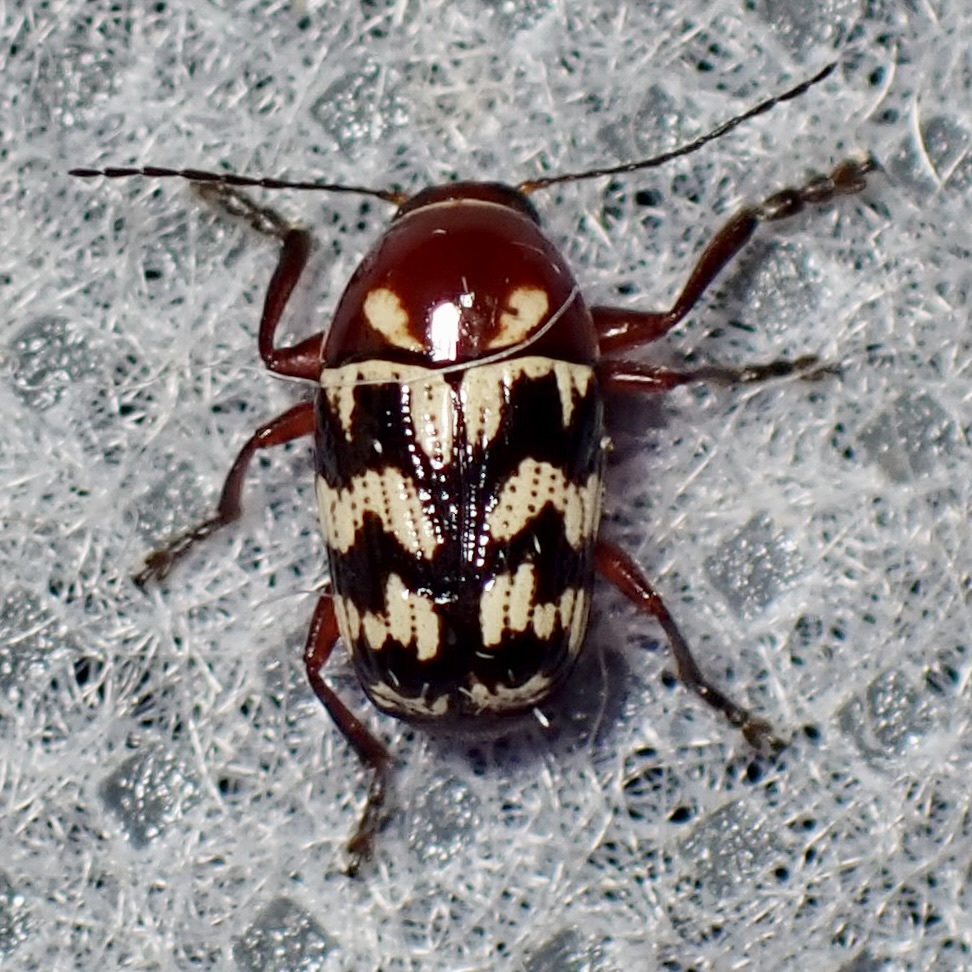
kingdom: Animalia
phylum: Arthropoda
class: Insecta
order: Coleoptera
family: Chrysomelidae
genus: Cryptocephalus
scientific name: Cryptocephalus triundulatus
